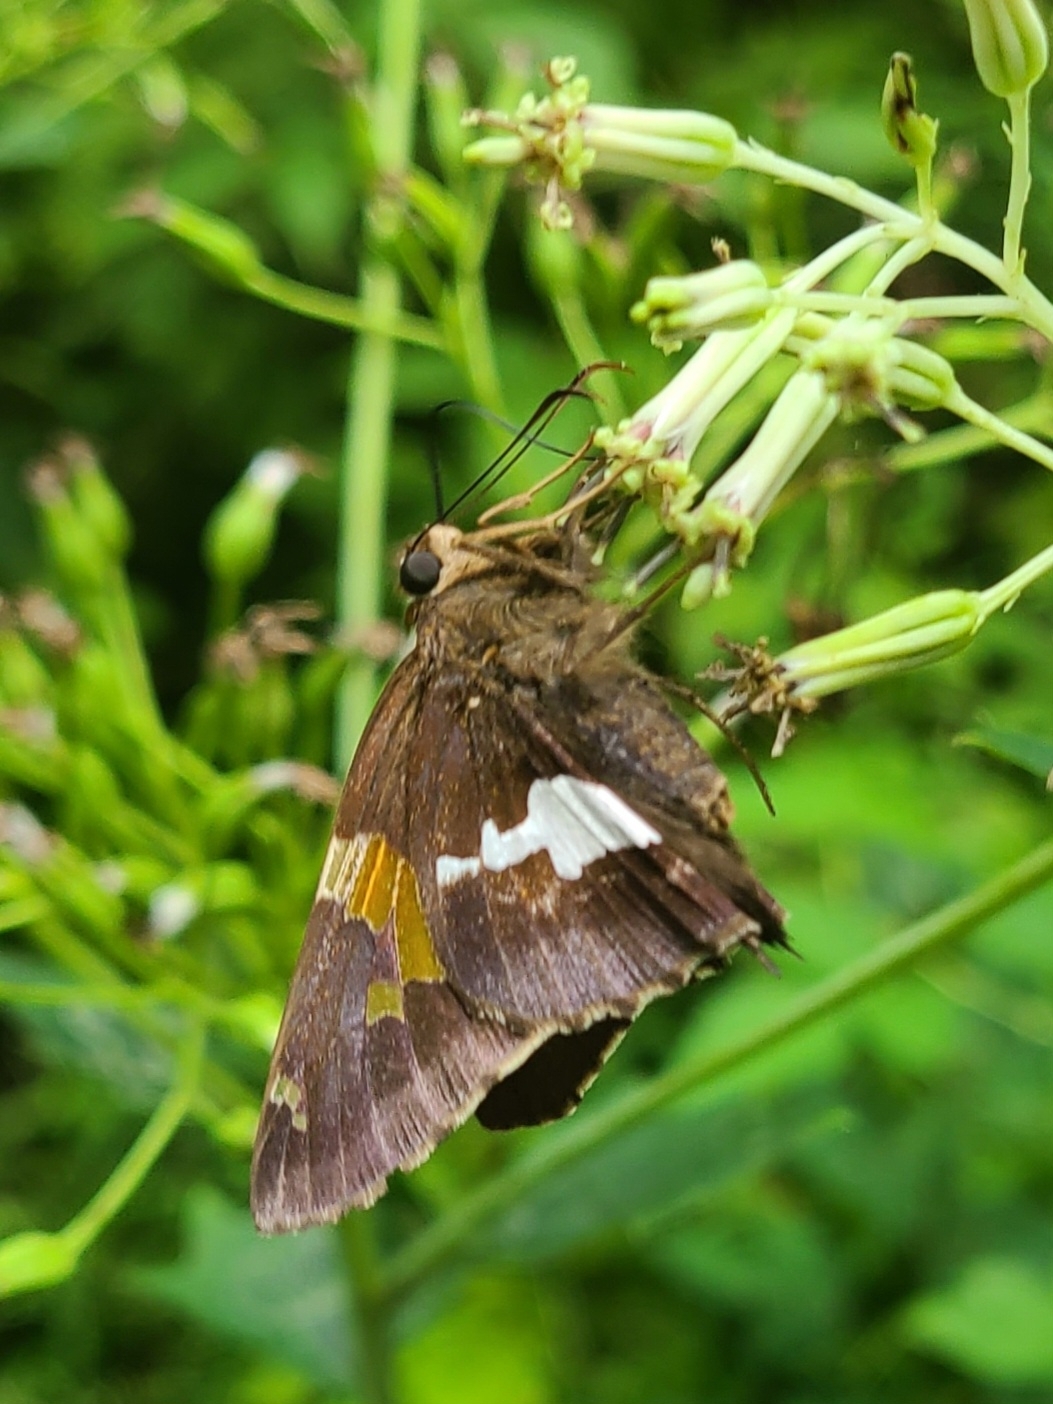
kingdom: Animalia
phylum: Arthropoda
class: Insecta
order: Lepidoptera
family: Hesperiidae
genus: Epargyreus
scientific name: Epargyreus clarus
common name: Silver-spotted skipper
